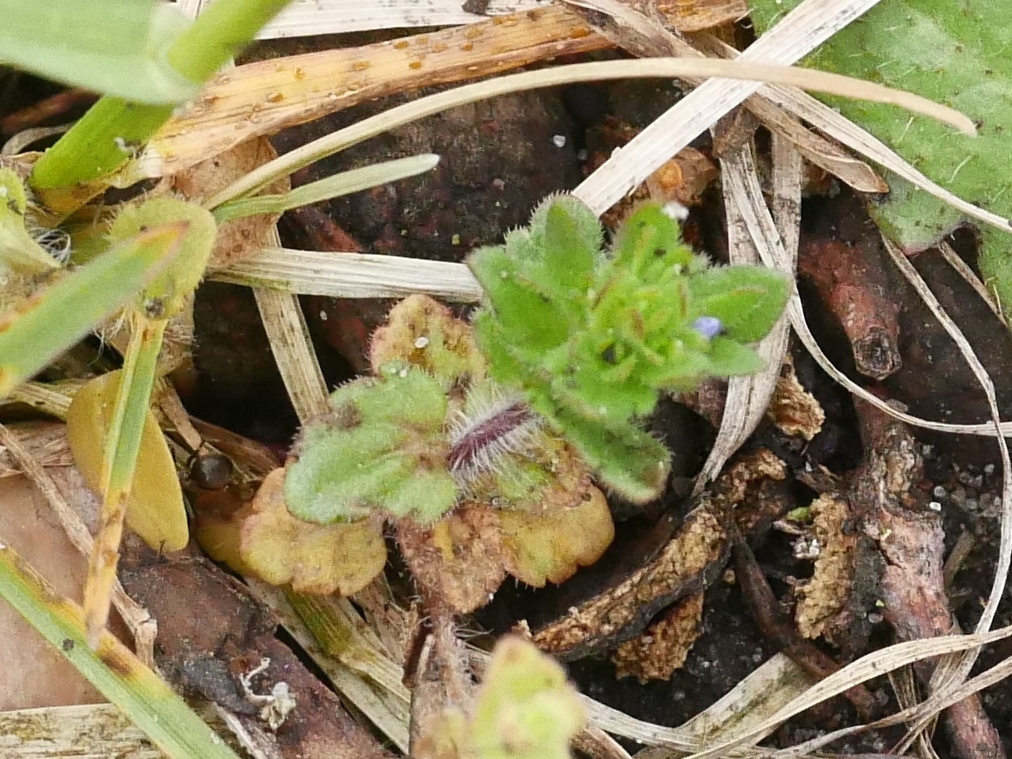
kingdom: Plantae
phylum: Tracheophyta
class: Magnoliopsida
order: Lamiales
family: Plantaginaceae
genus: Veronica
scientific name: Veronica arvensis
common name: Corn speedwell
